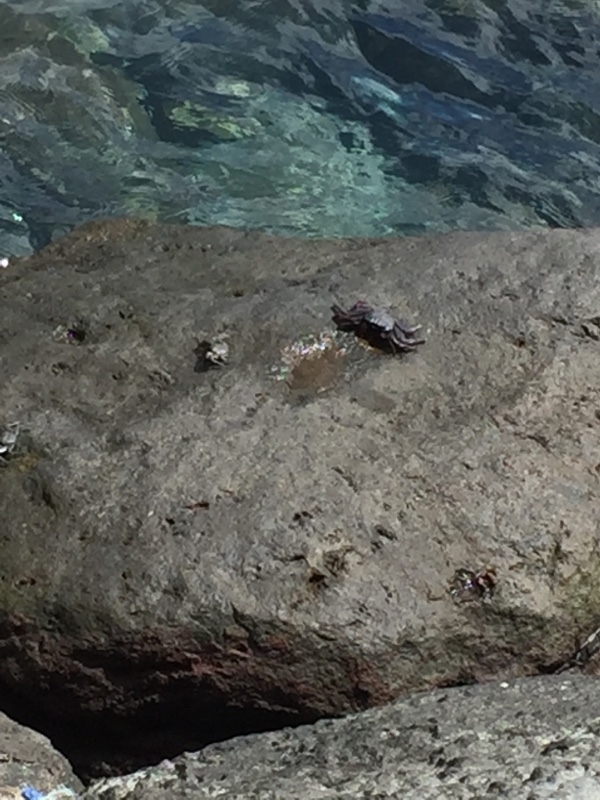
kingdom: Animalia
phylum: Arthropoda
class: Malacostraca
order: Decapoda
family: Grapsidae
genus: Grapsus
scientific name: Grapsus adscensionis
